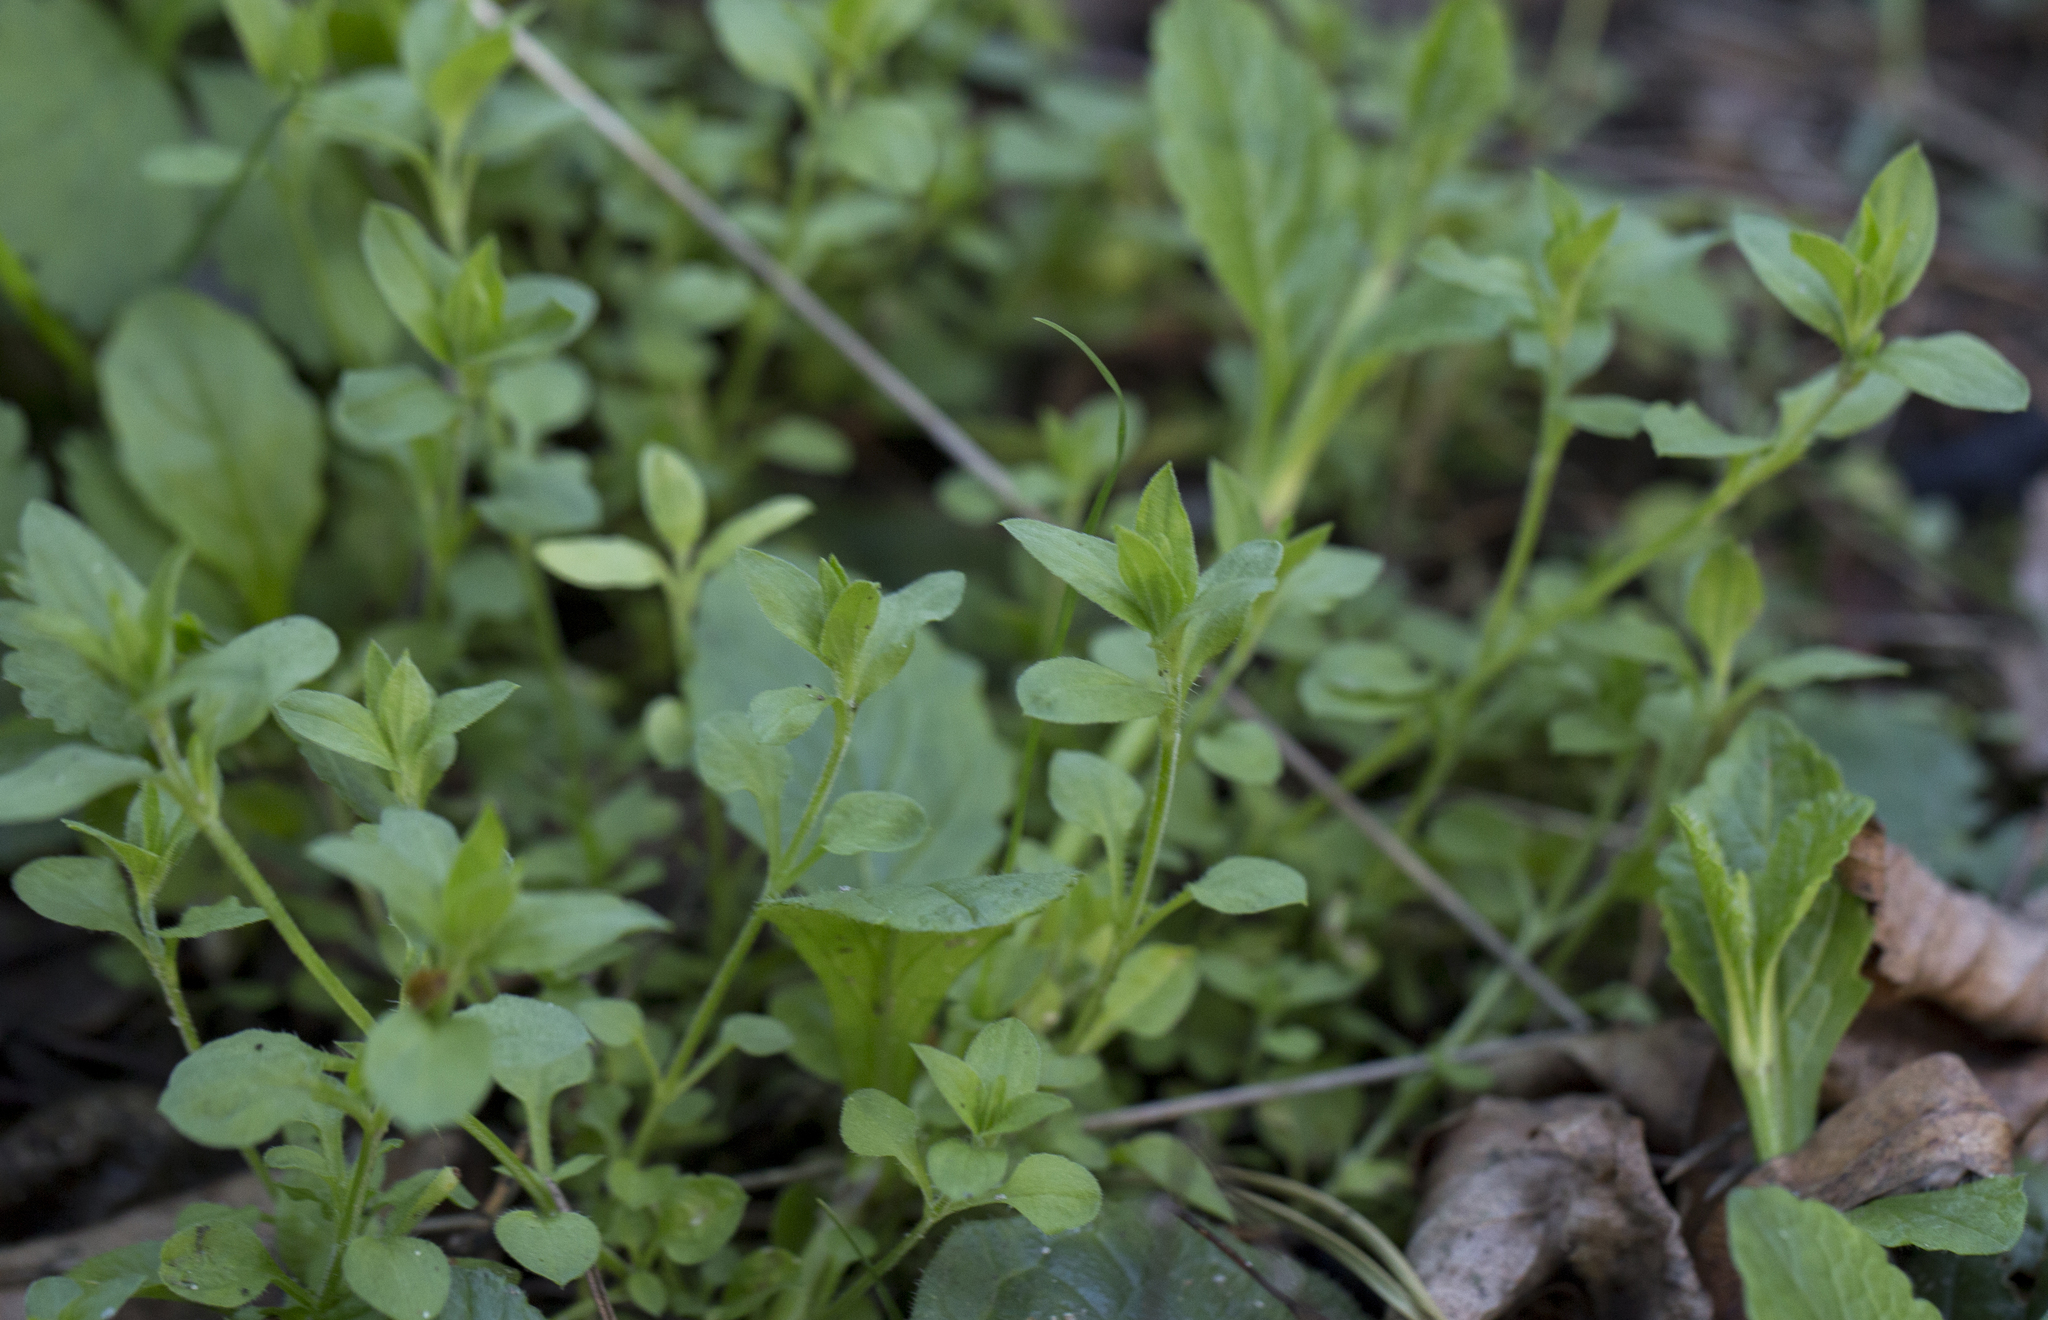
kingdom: Plantae
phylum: Tracheophyta
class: Magnoliopsida
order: Caryophyllales
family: Caryophyllaceae
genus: Moehringia
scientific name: Moehringia trinervia
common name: Three-nerved sandwort
